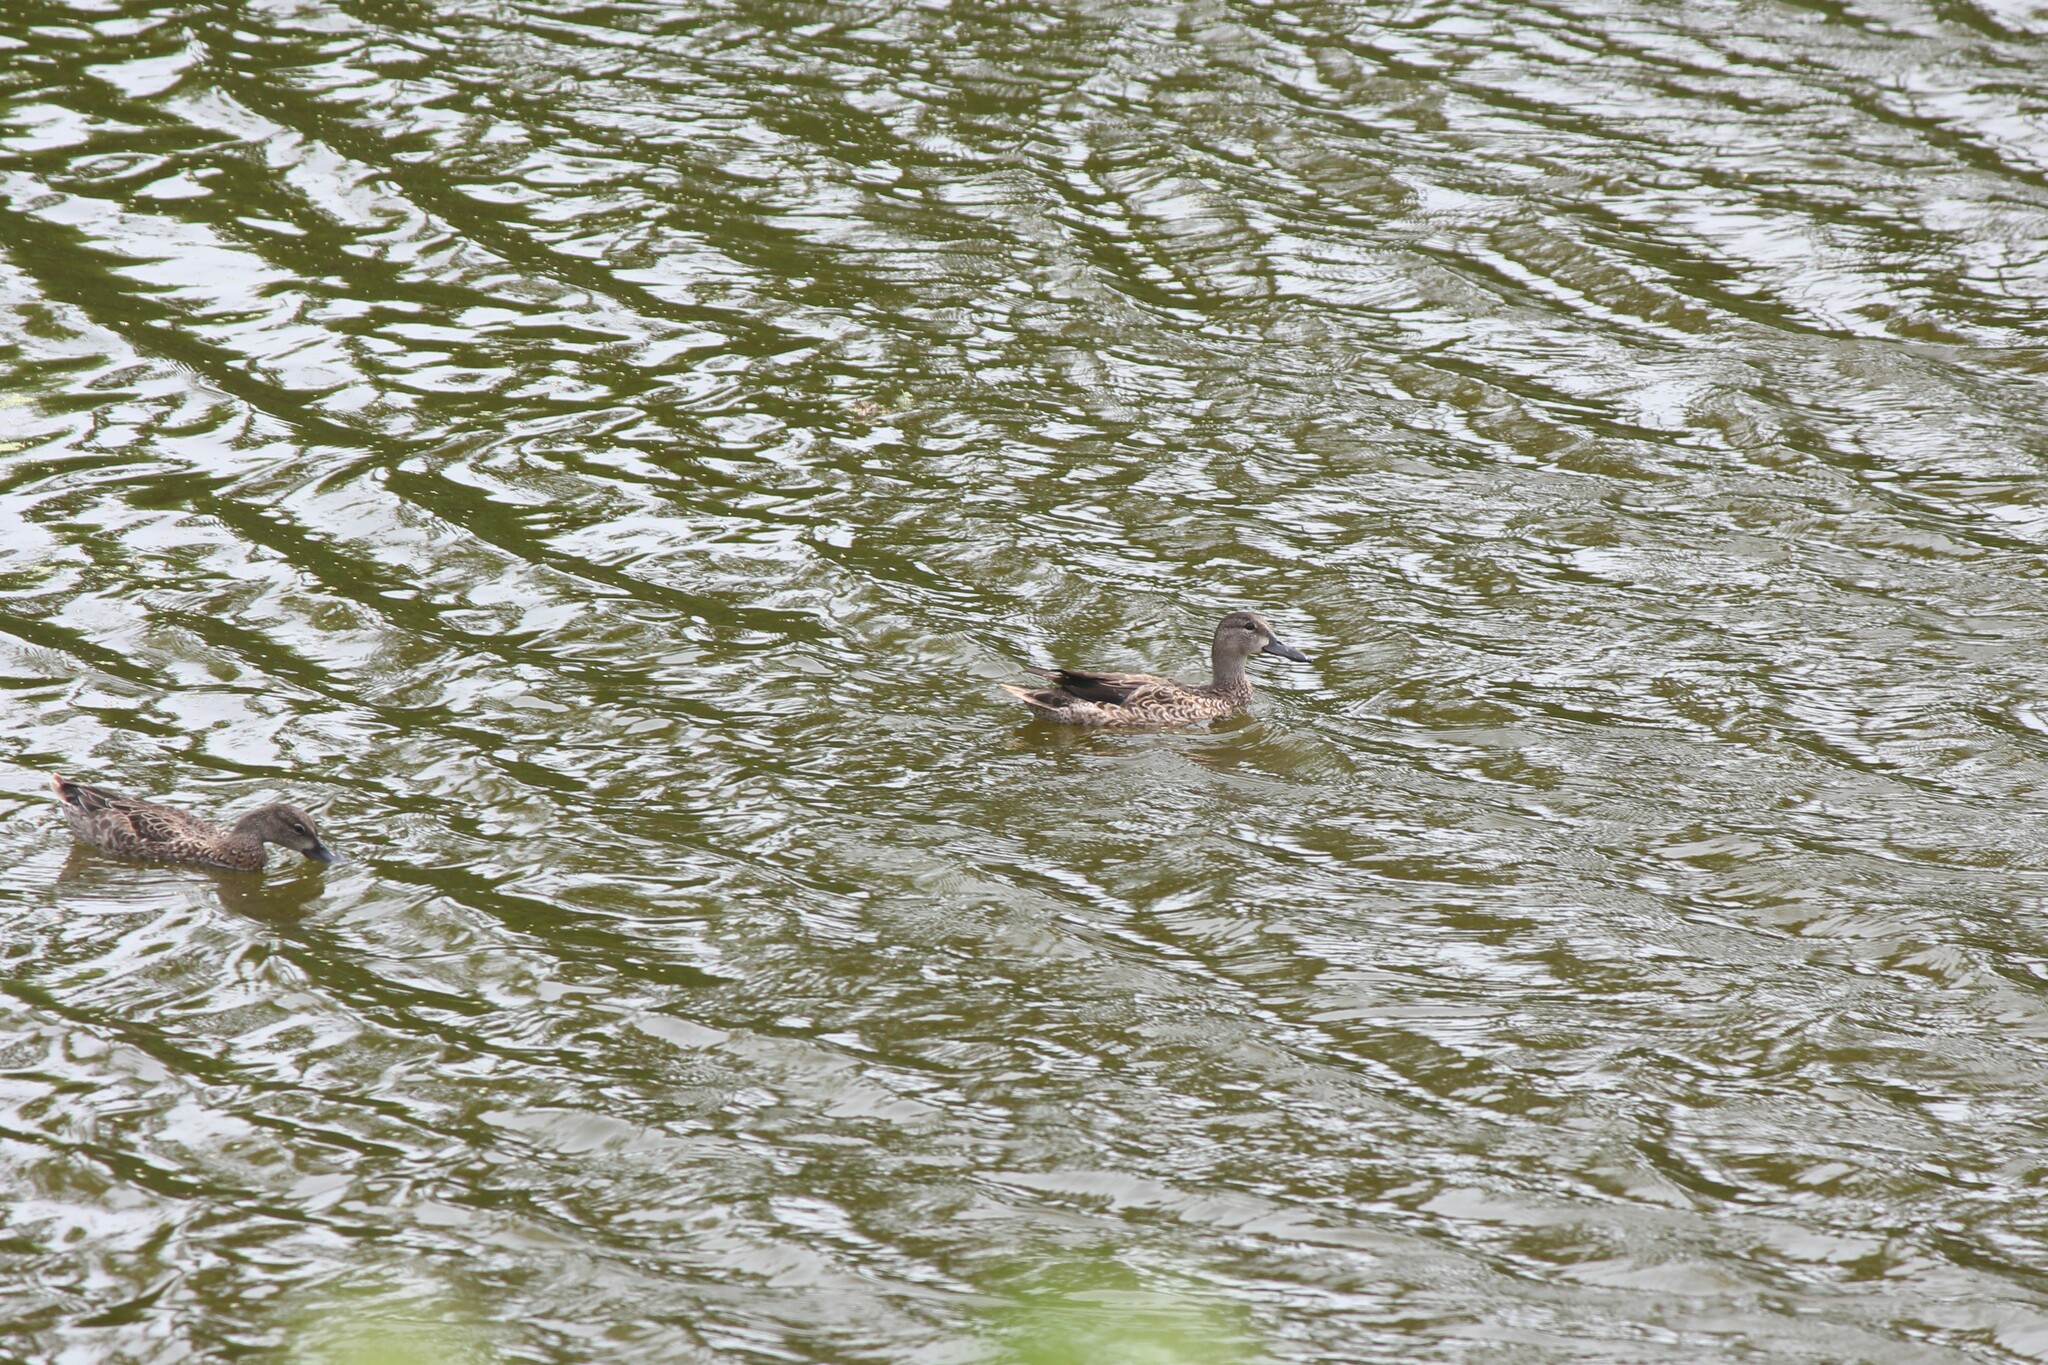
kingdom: Animalia
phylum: Chordata
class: Aves
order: Anseriformes
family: Anatidae
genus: Spatula
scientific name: Spatula discors
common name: Blue-winged teal
